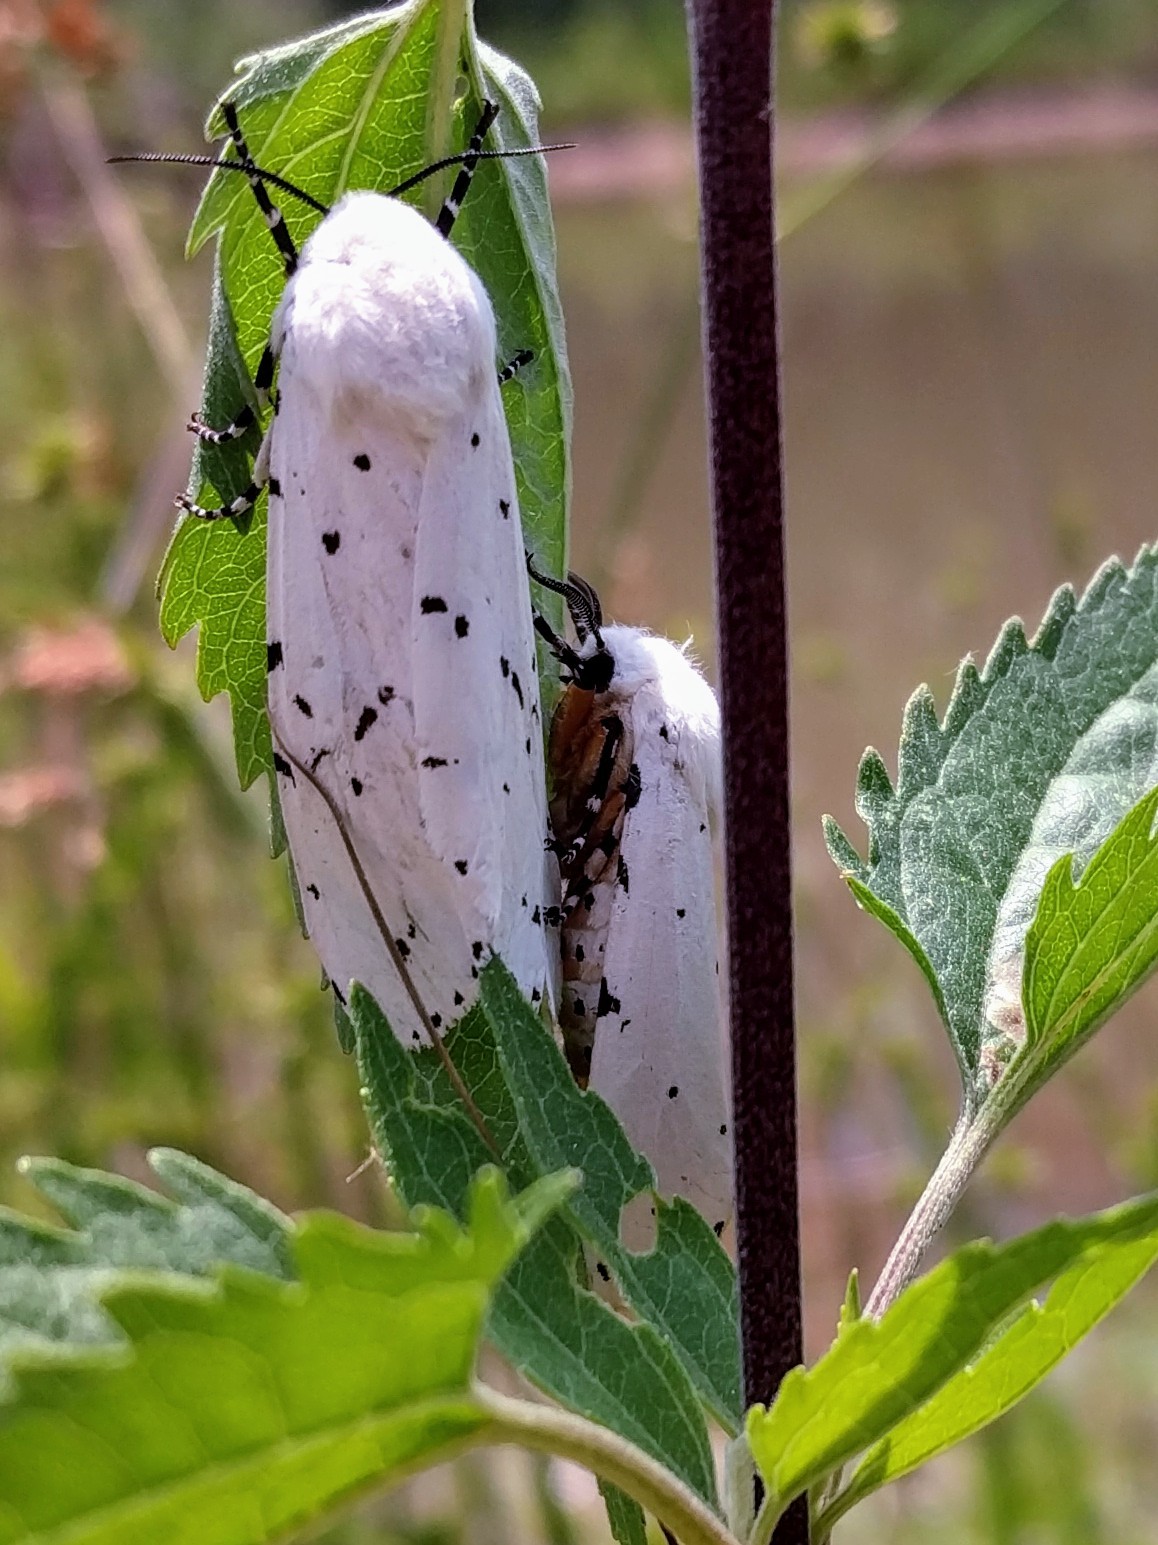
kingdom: Animalia
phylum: Arthropoda
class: Insecta
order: Lepidoptera
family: Erebidae
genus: Estigmene
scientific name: Estigmene acrea
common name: Salt marsh moth
